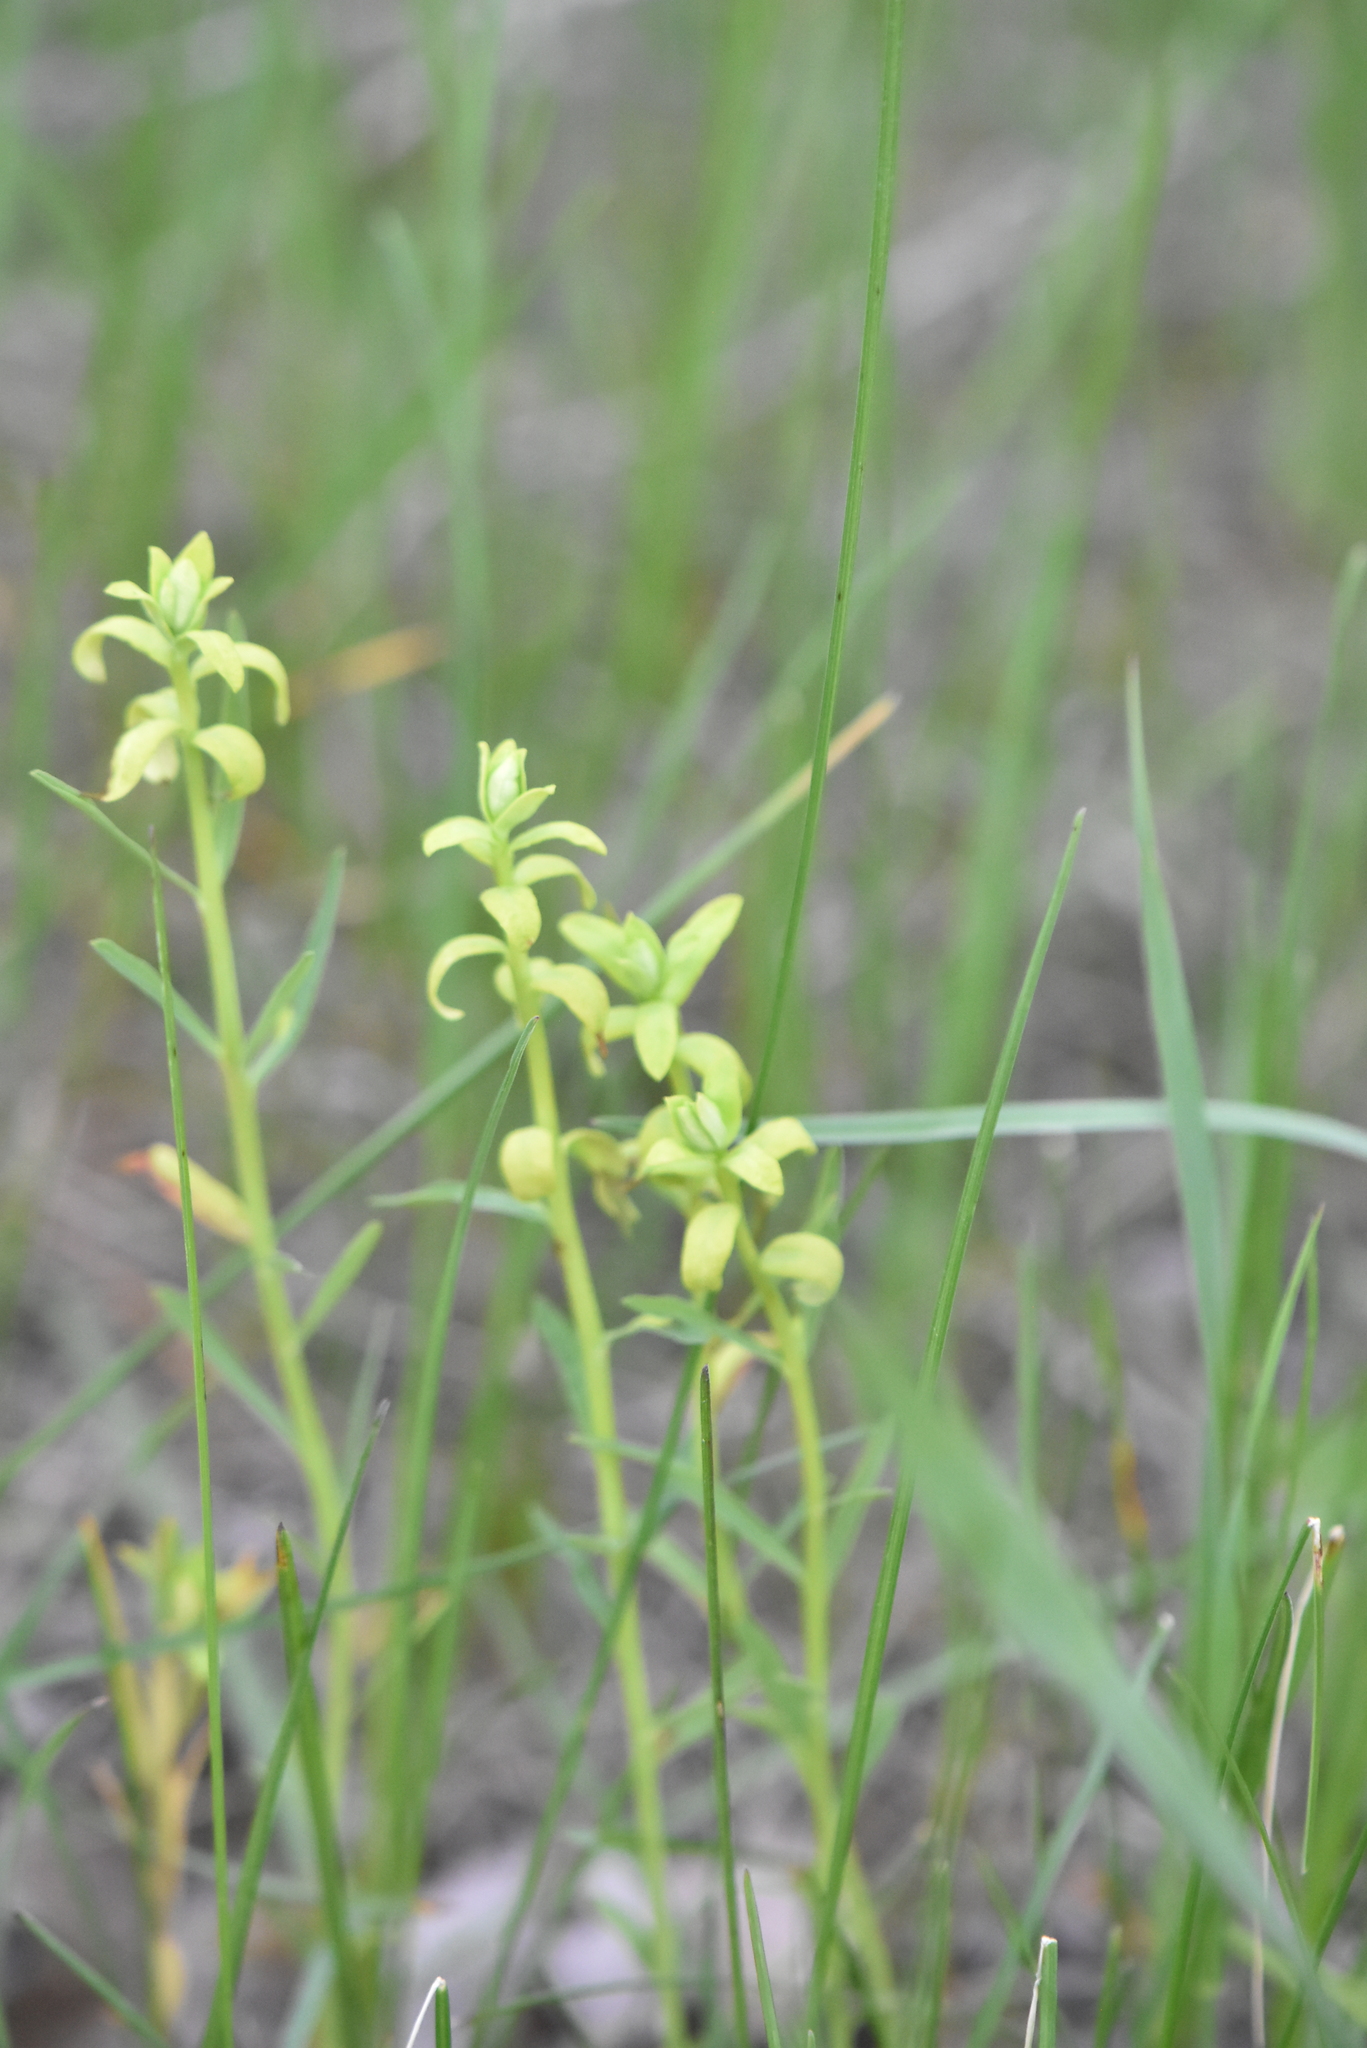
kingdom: Plantae
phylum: Tracheophyta
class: Magnoliopsida
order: Malpighiales
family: Euphorbiaceae
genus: Euphorbia
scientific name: Euphorbia virgata
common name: Leafy spurge
